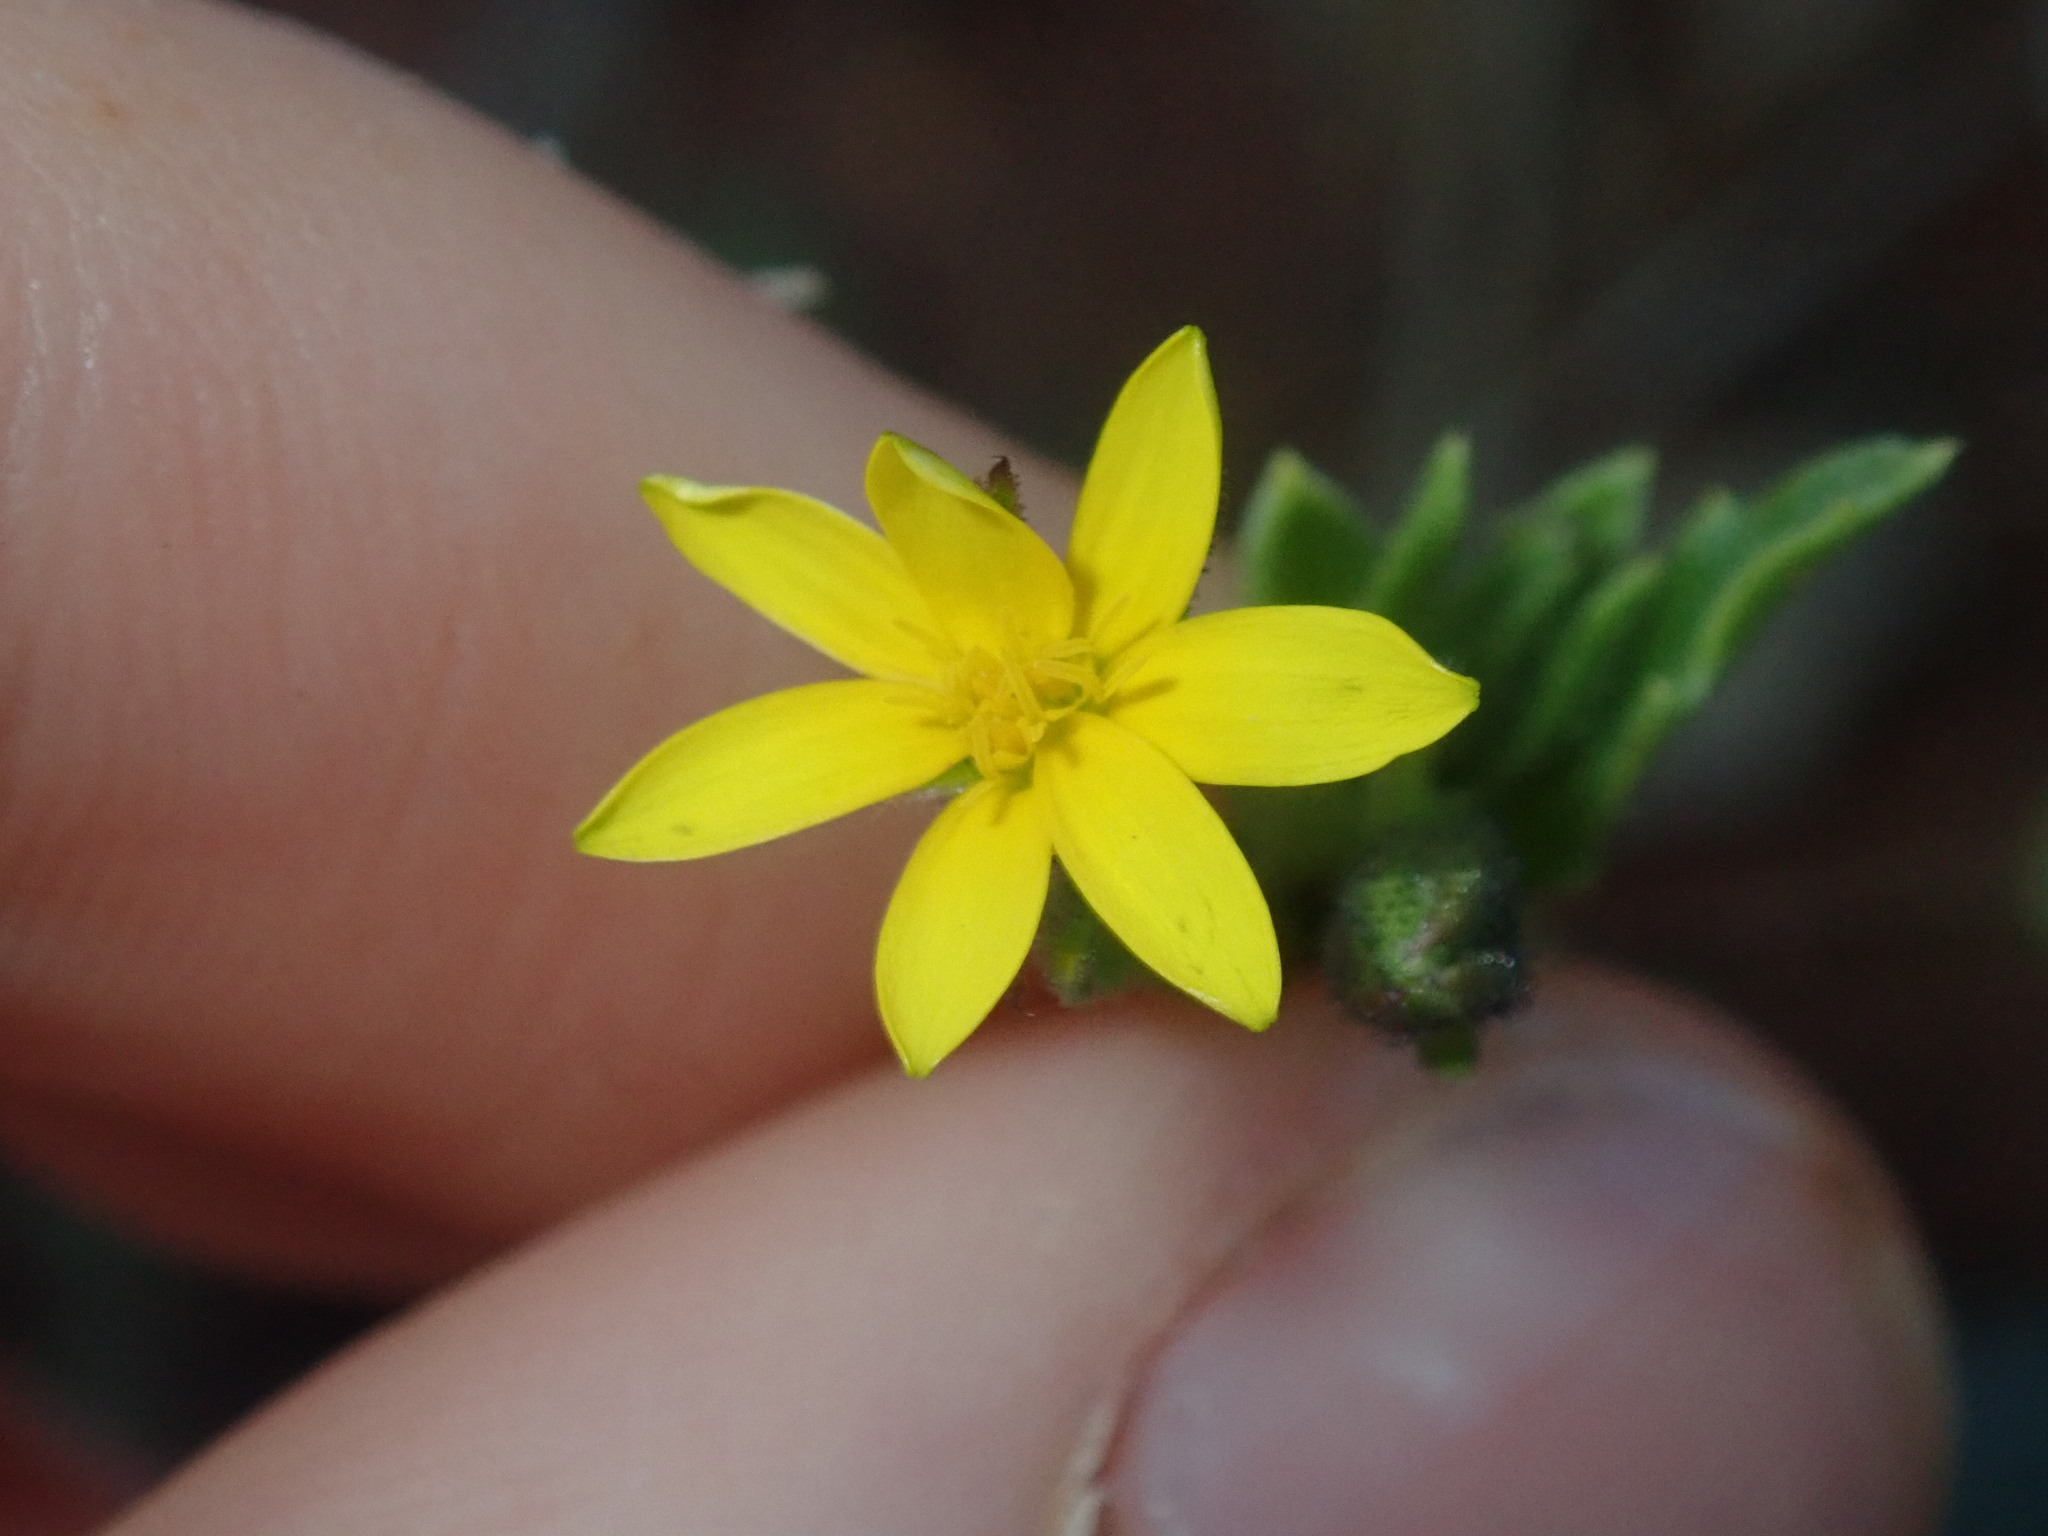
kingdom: Plantae
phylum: Tracheophyta
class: Magnoliopsida
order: Asterales
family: Asteraceae
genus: Osteospermum
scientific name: Osteospermum calendulaceum
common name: Stinking roger
